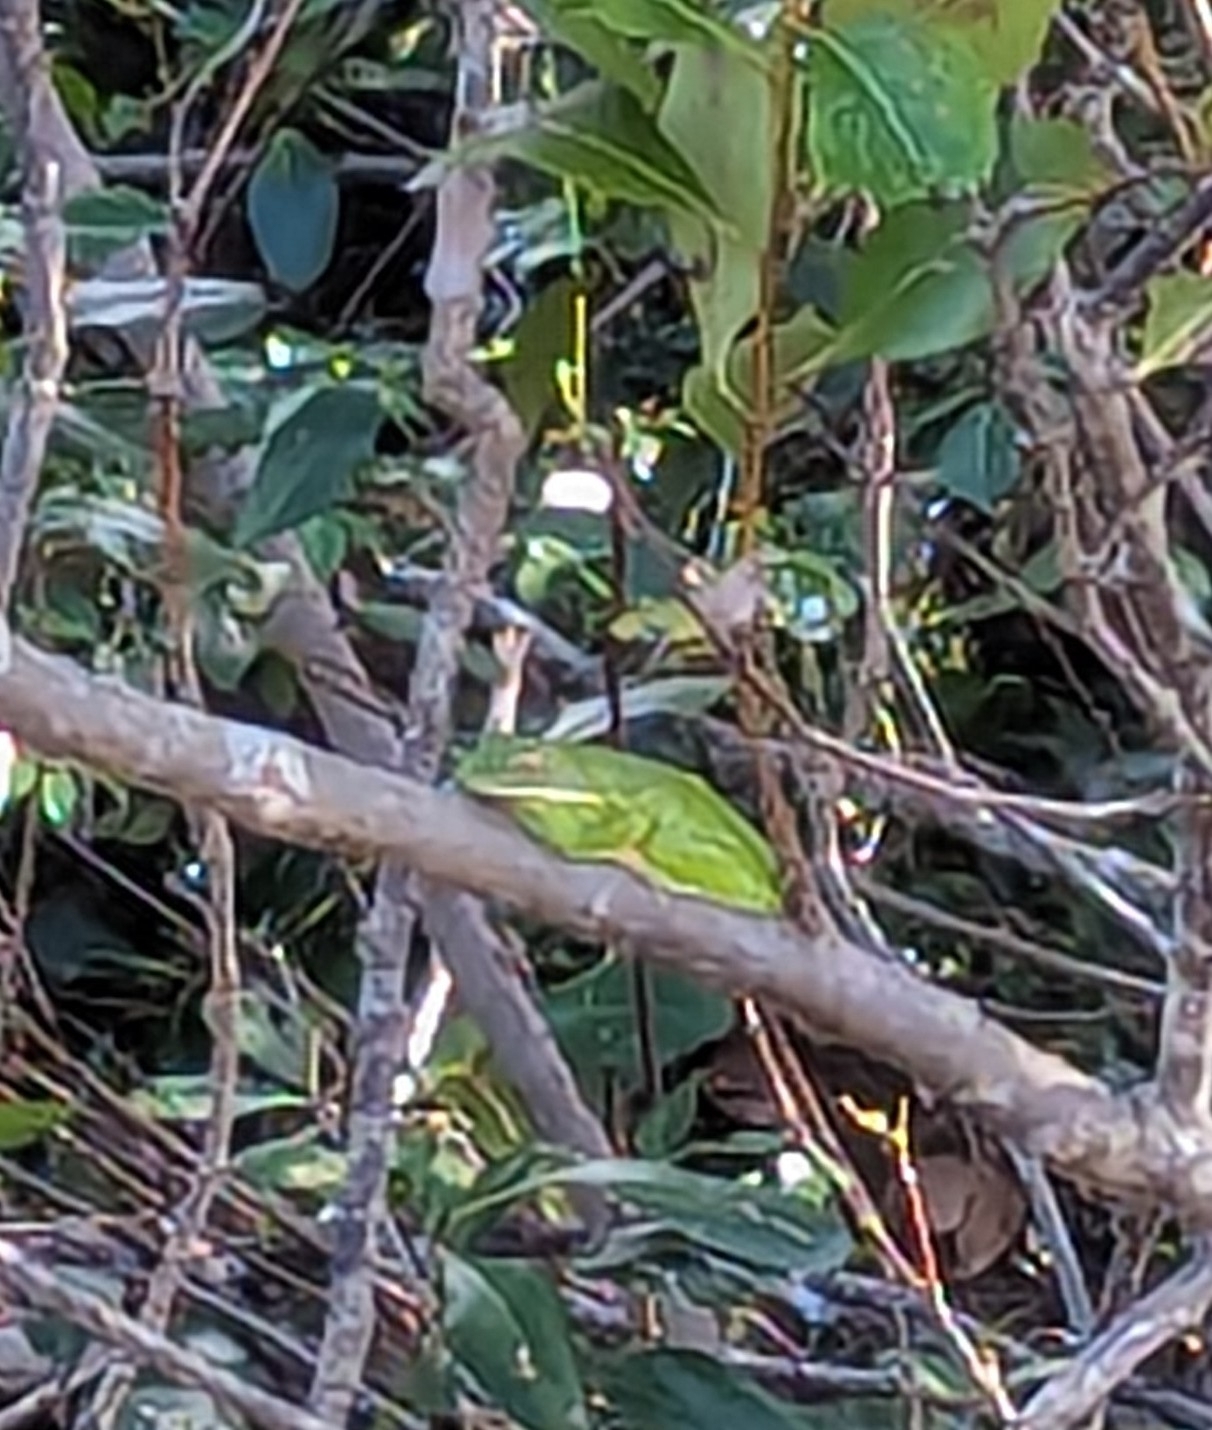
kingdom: Animalia
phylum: Chordata
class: Amphibia
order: Anura
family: Pelodryadidae
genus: Nyctimystes
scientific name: Nyctimystes infrafrenatus
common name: Australian giant treefrog
